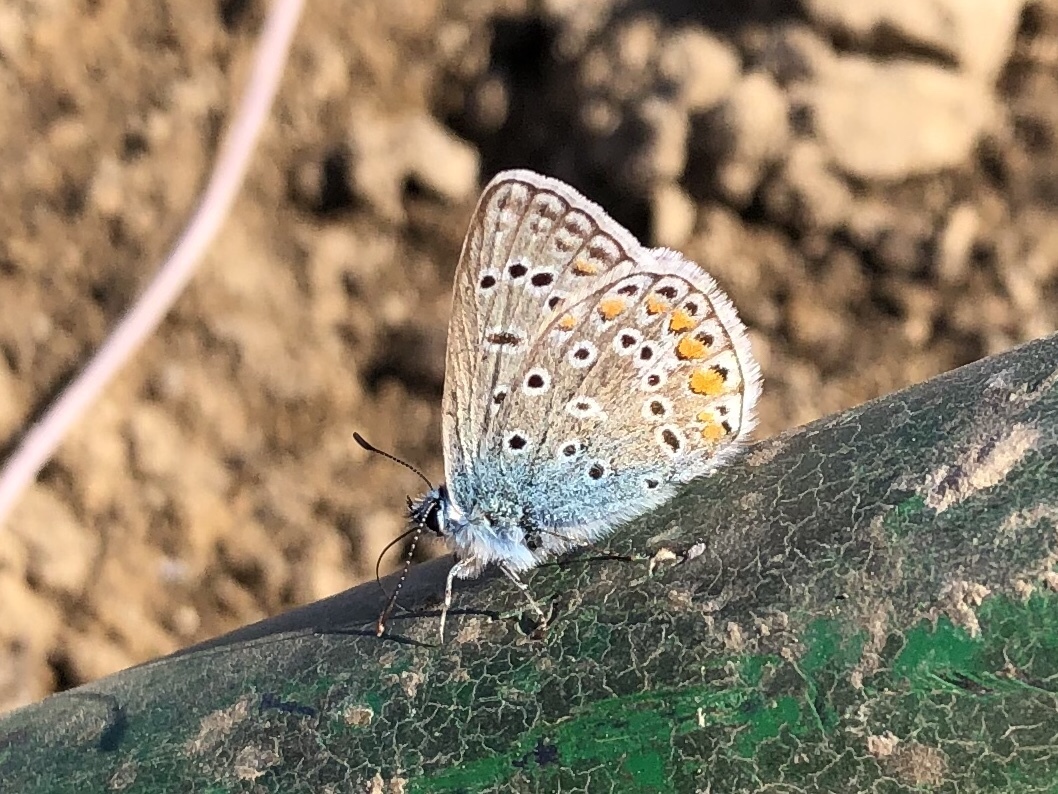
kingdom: Animalia
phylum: Arthropoda
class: Insecta
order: Lepidoptera
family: Lycaenidae
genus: Polyommatus
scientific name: Polyommatus icarus
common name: Common blue
